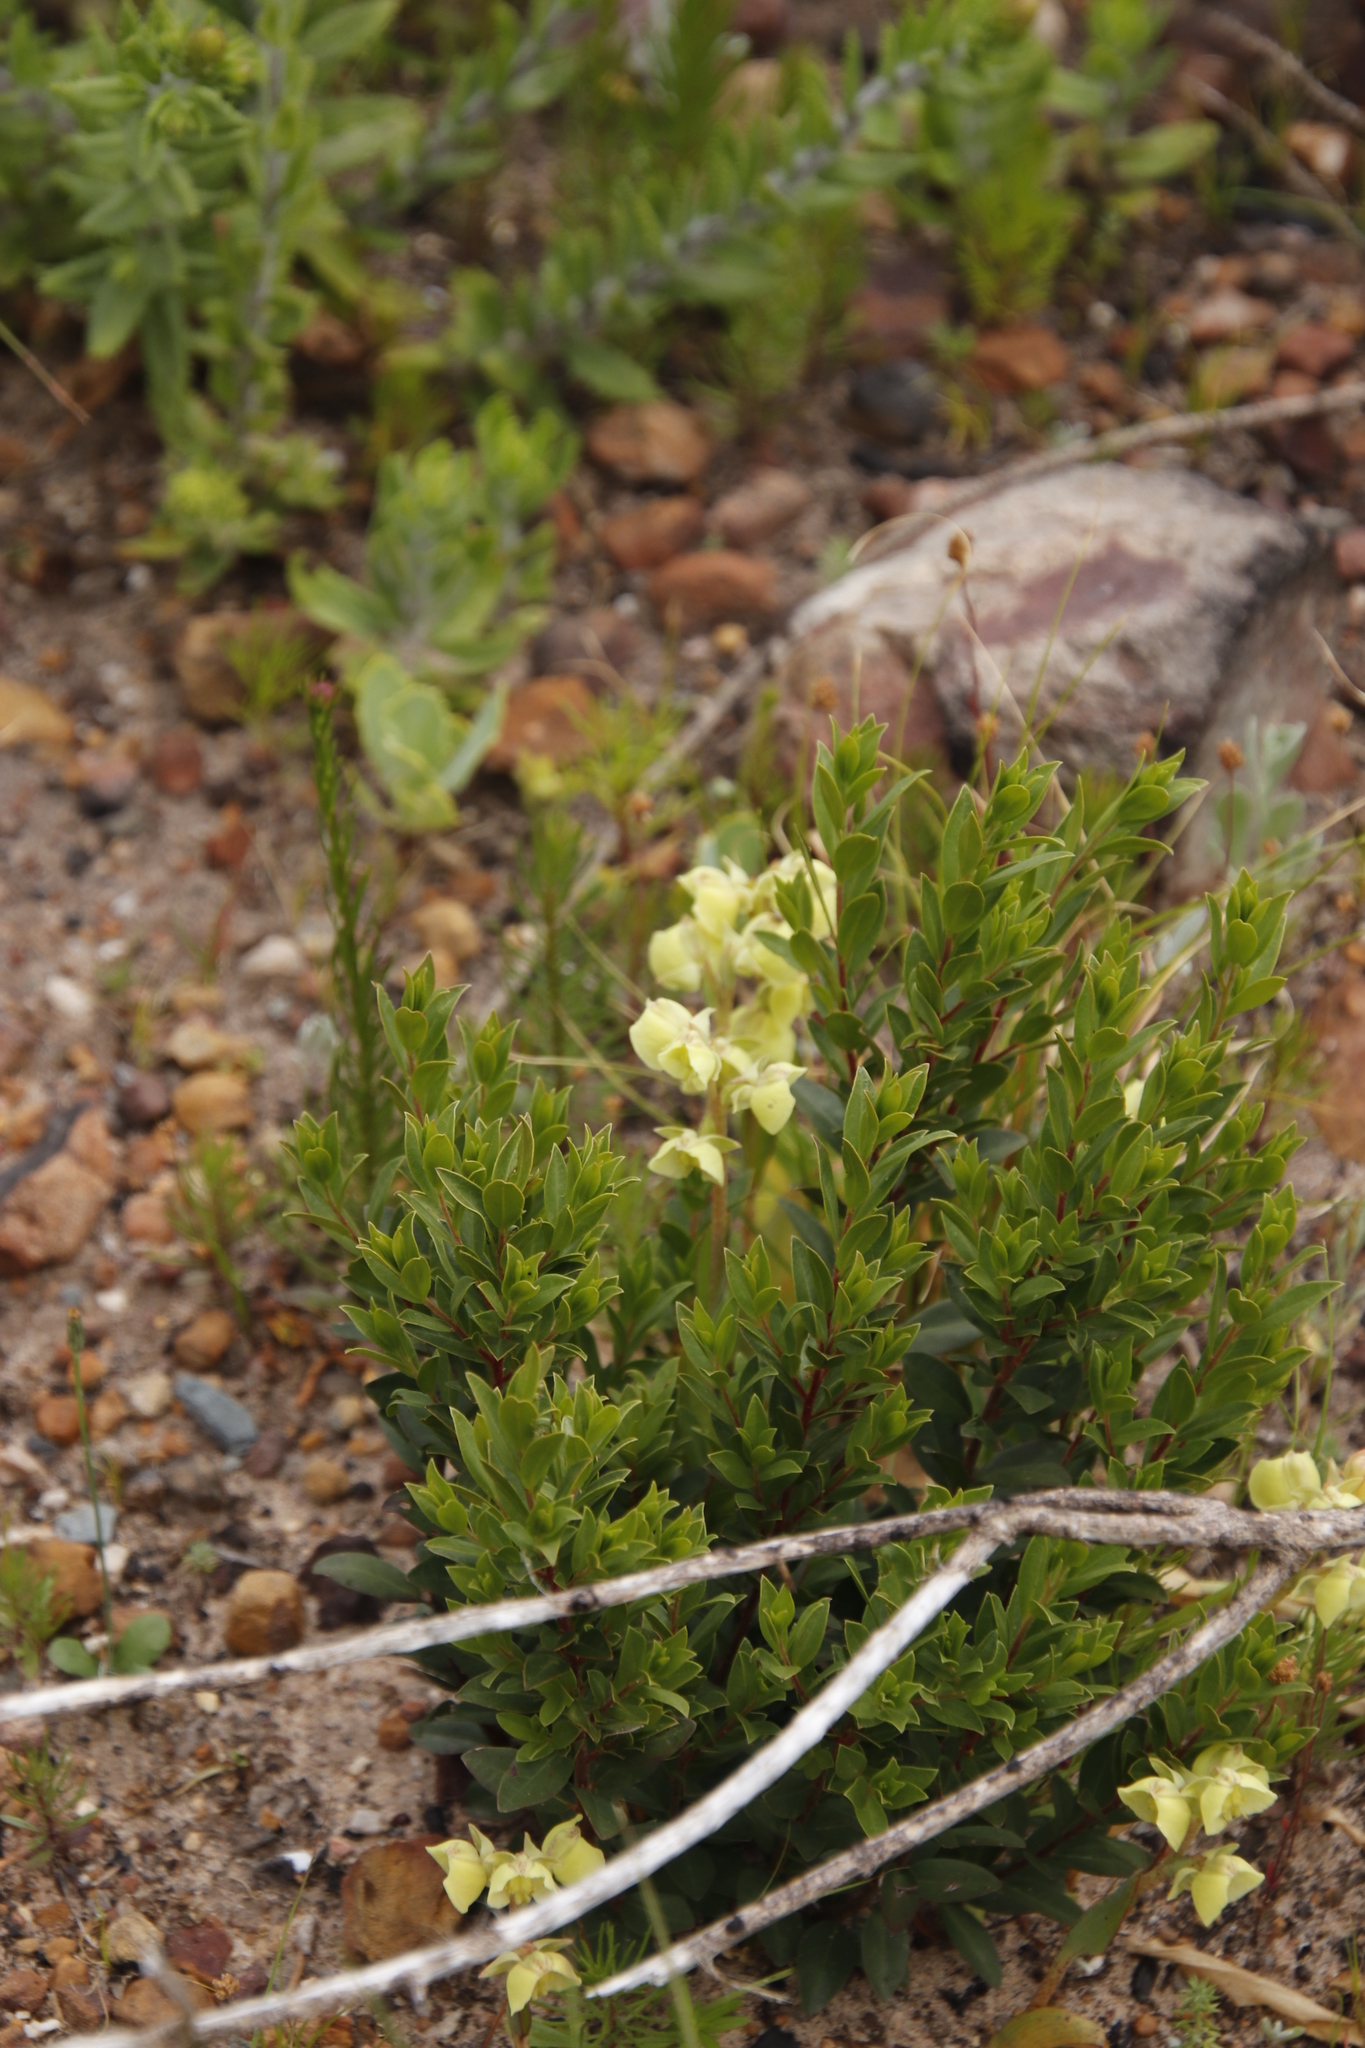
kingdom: Plantae
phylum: Tracheophyta
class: Liliopsida
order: Asparagales
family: Orchidaceae
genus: Pterygodium
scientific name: Pterygodium catholicum
